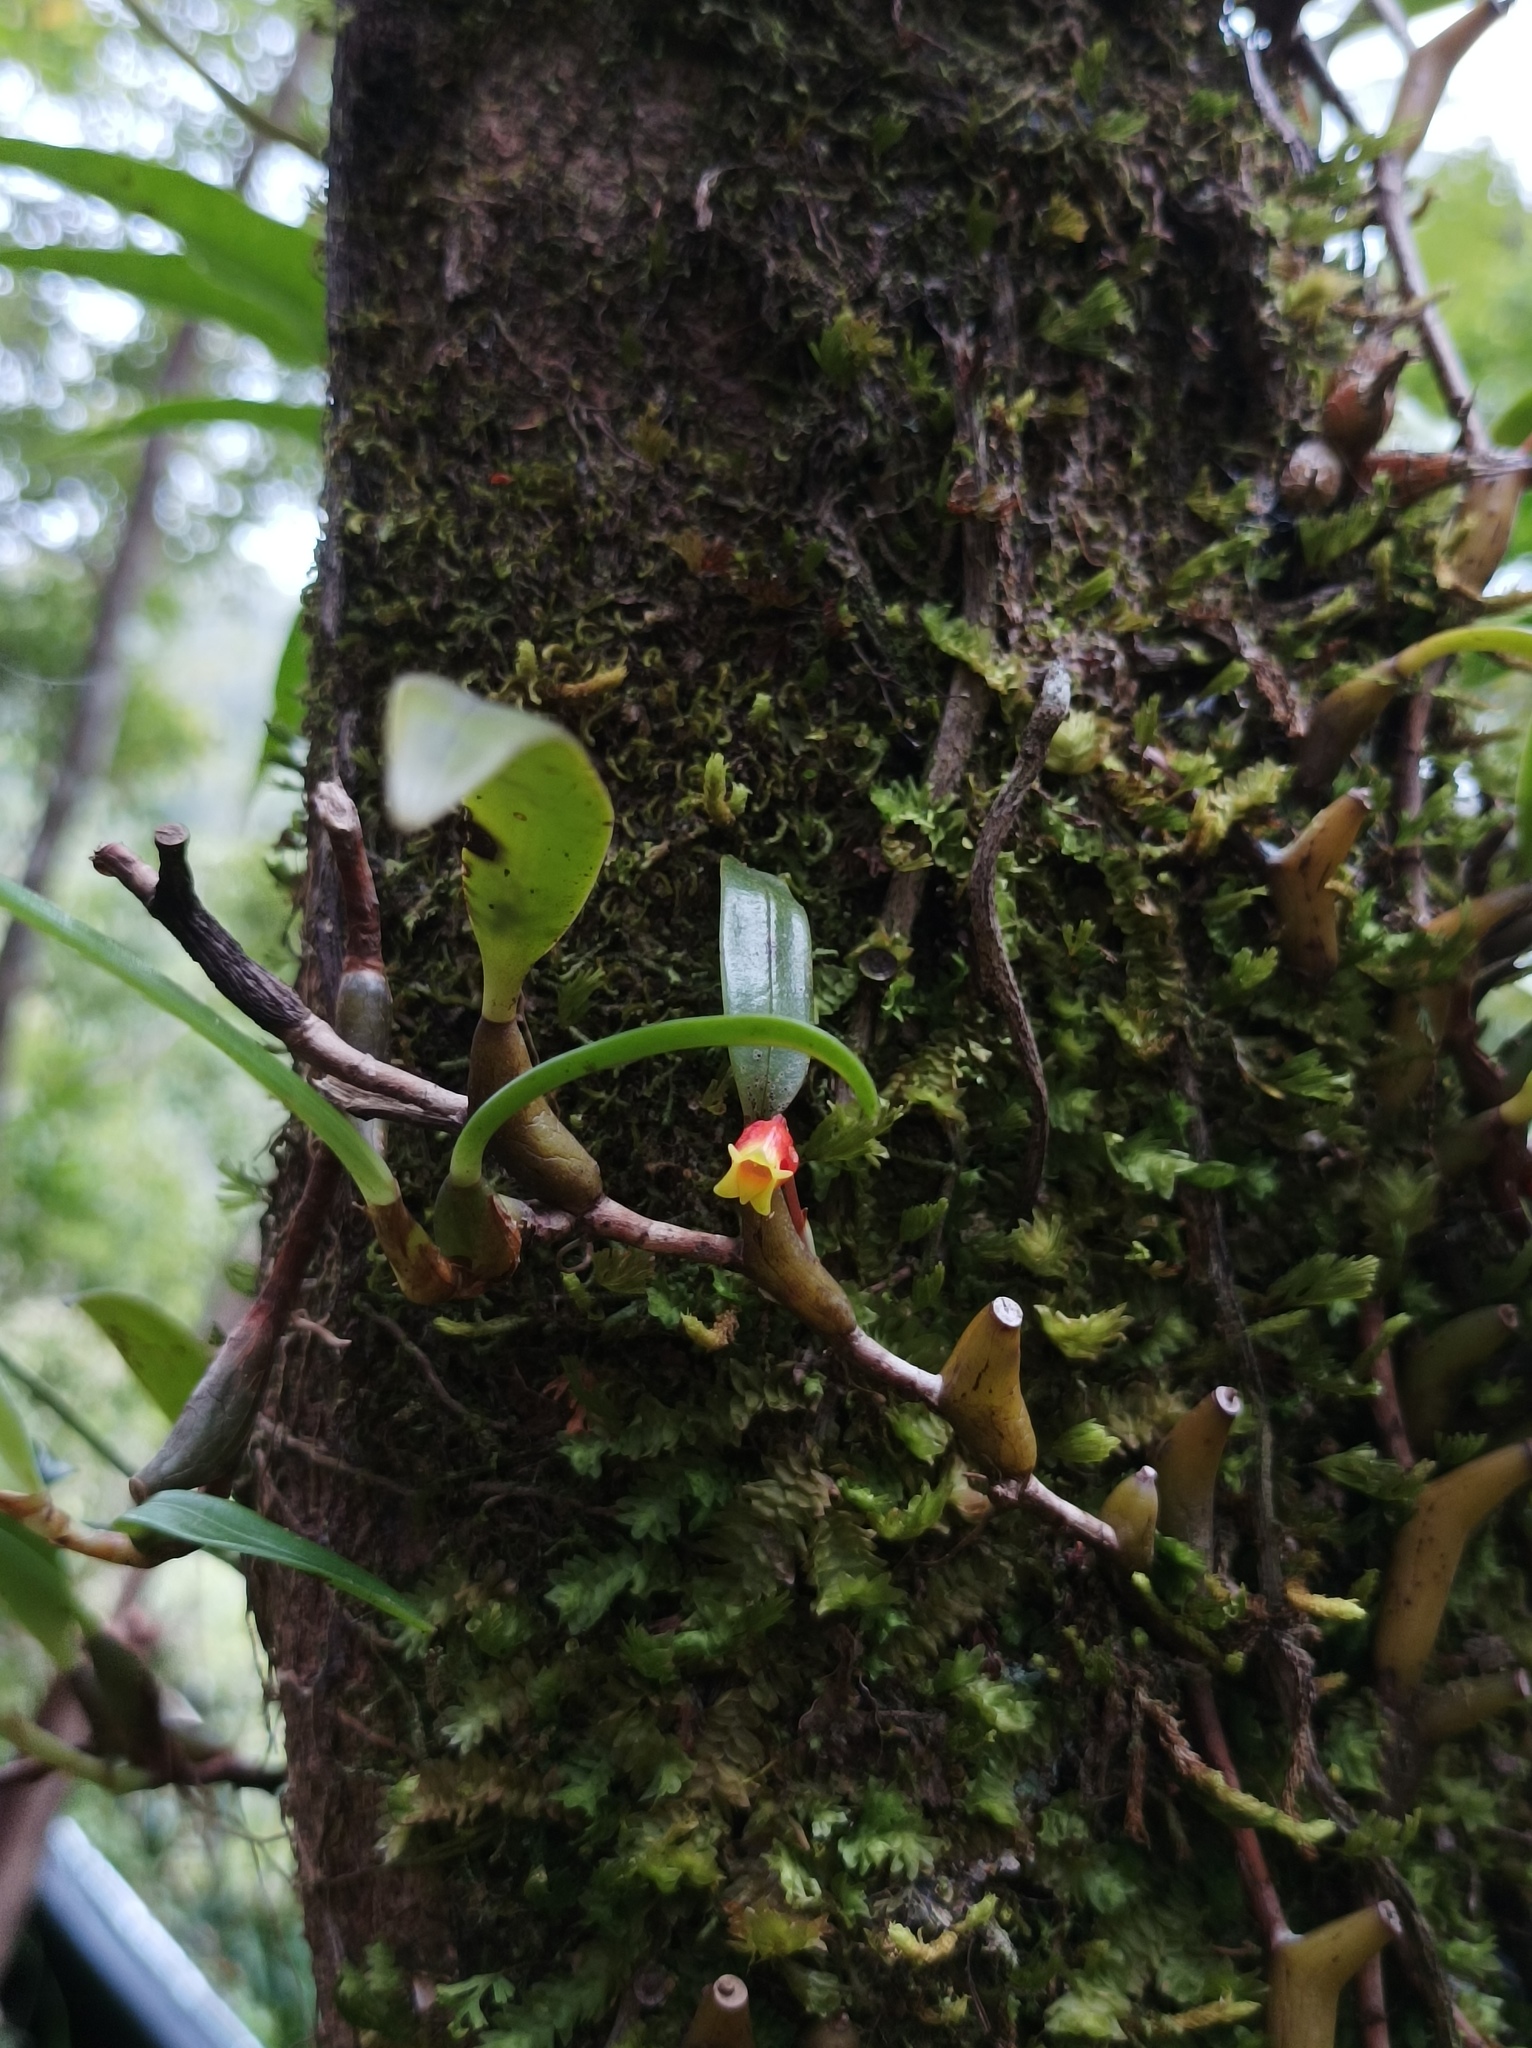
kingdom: Plantae
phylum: Tracheophyta
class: Liliopsida
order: Asparagales
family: Orchidaceae
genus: Mediocalcar
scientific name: Mediocalcar paradoxum
